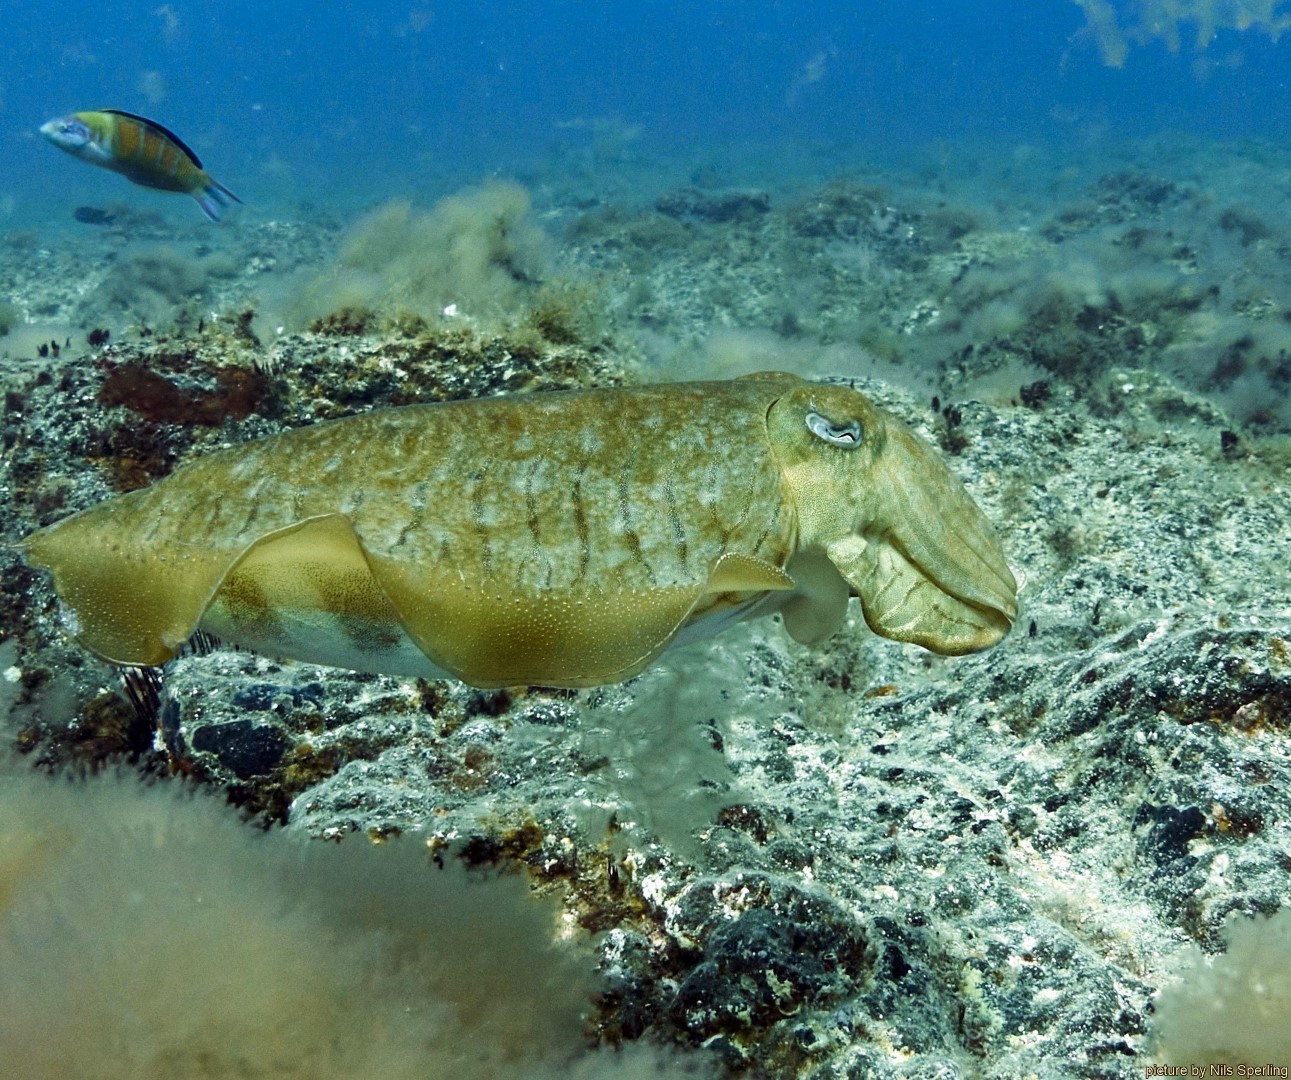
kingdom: Animalia
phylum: Mollusca
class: Cephalopoda
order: Sepiida
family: Sepiidae
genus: Sepia
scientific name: Sepia officinalis
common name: Common cuttlefish
